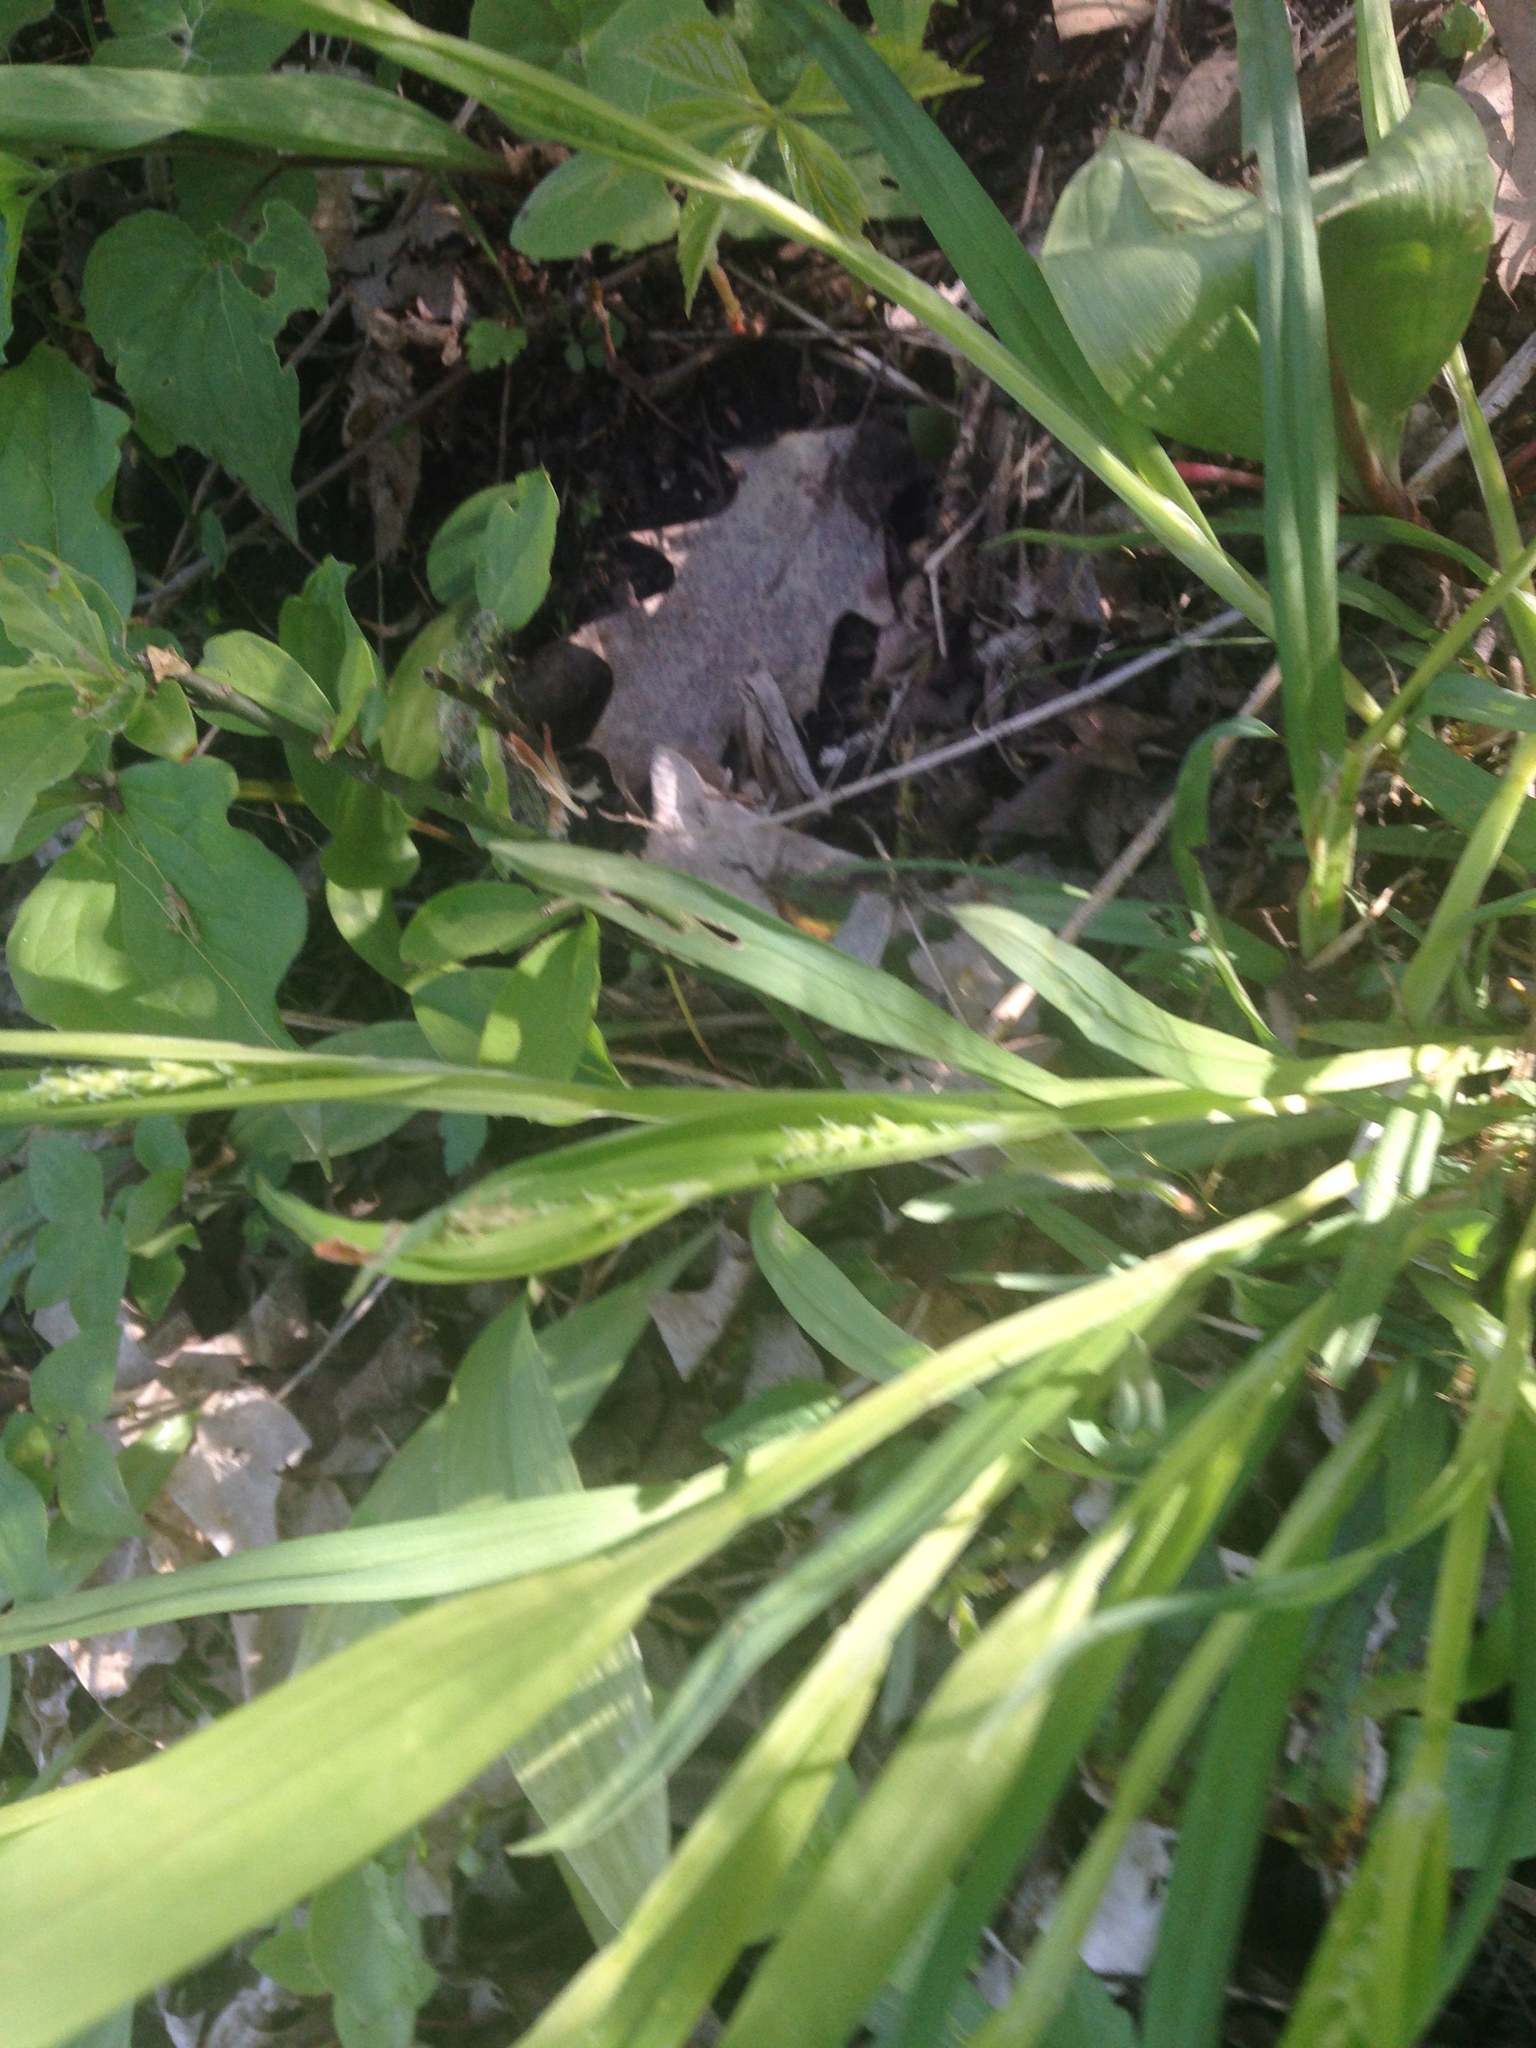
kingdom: Plantae
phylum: Tracheophyta
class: Liliopsida
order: Poales
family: Cyperaceae
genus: Carex
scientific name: Carex albursina
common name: Blunt-scale wood sedge
